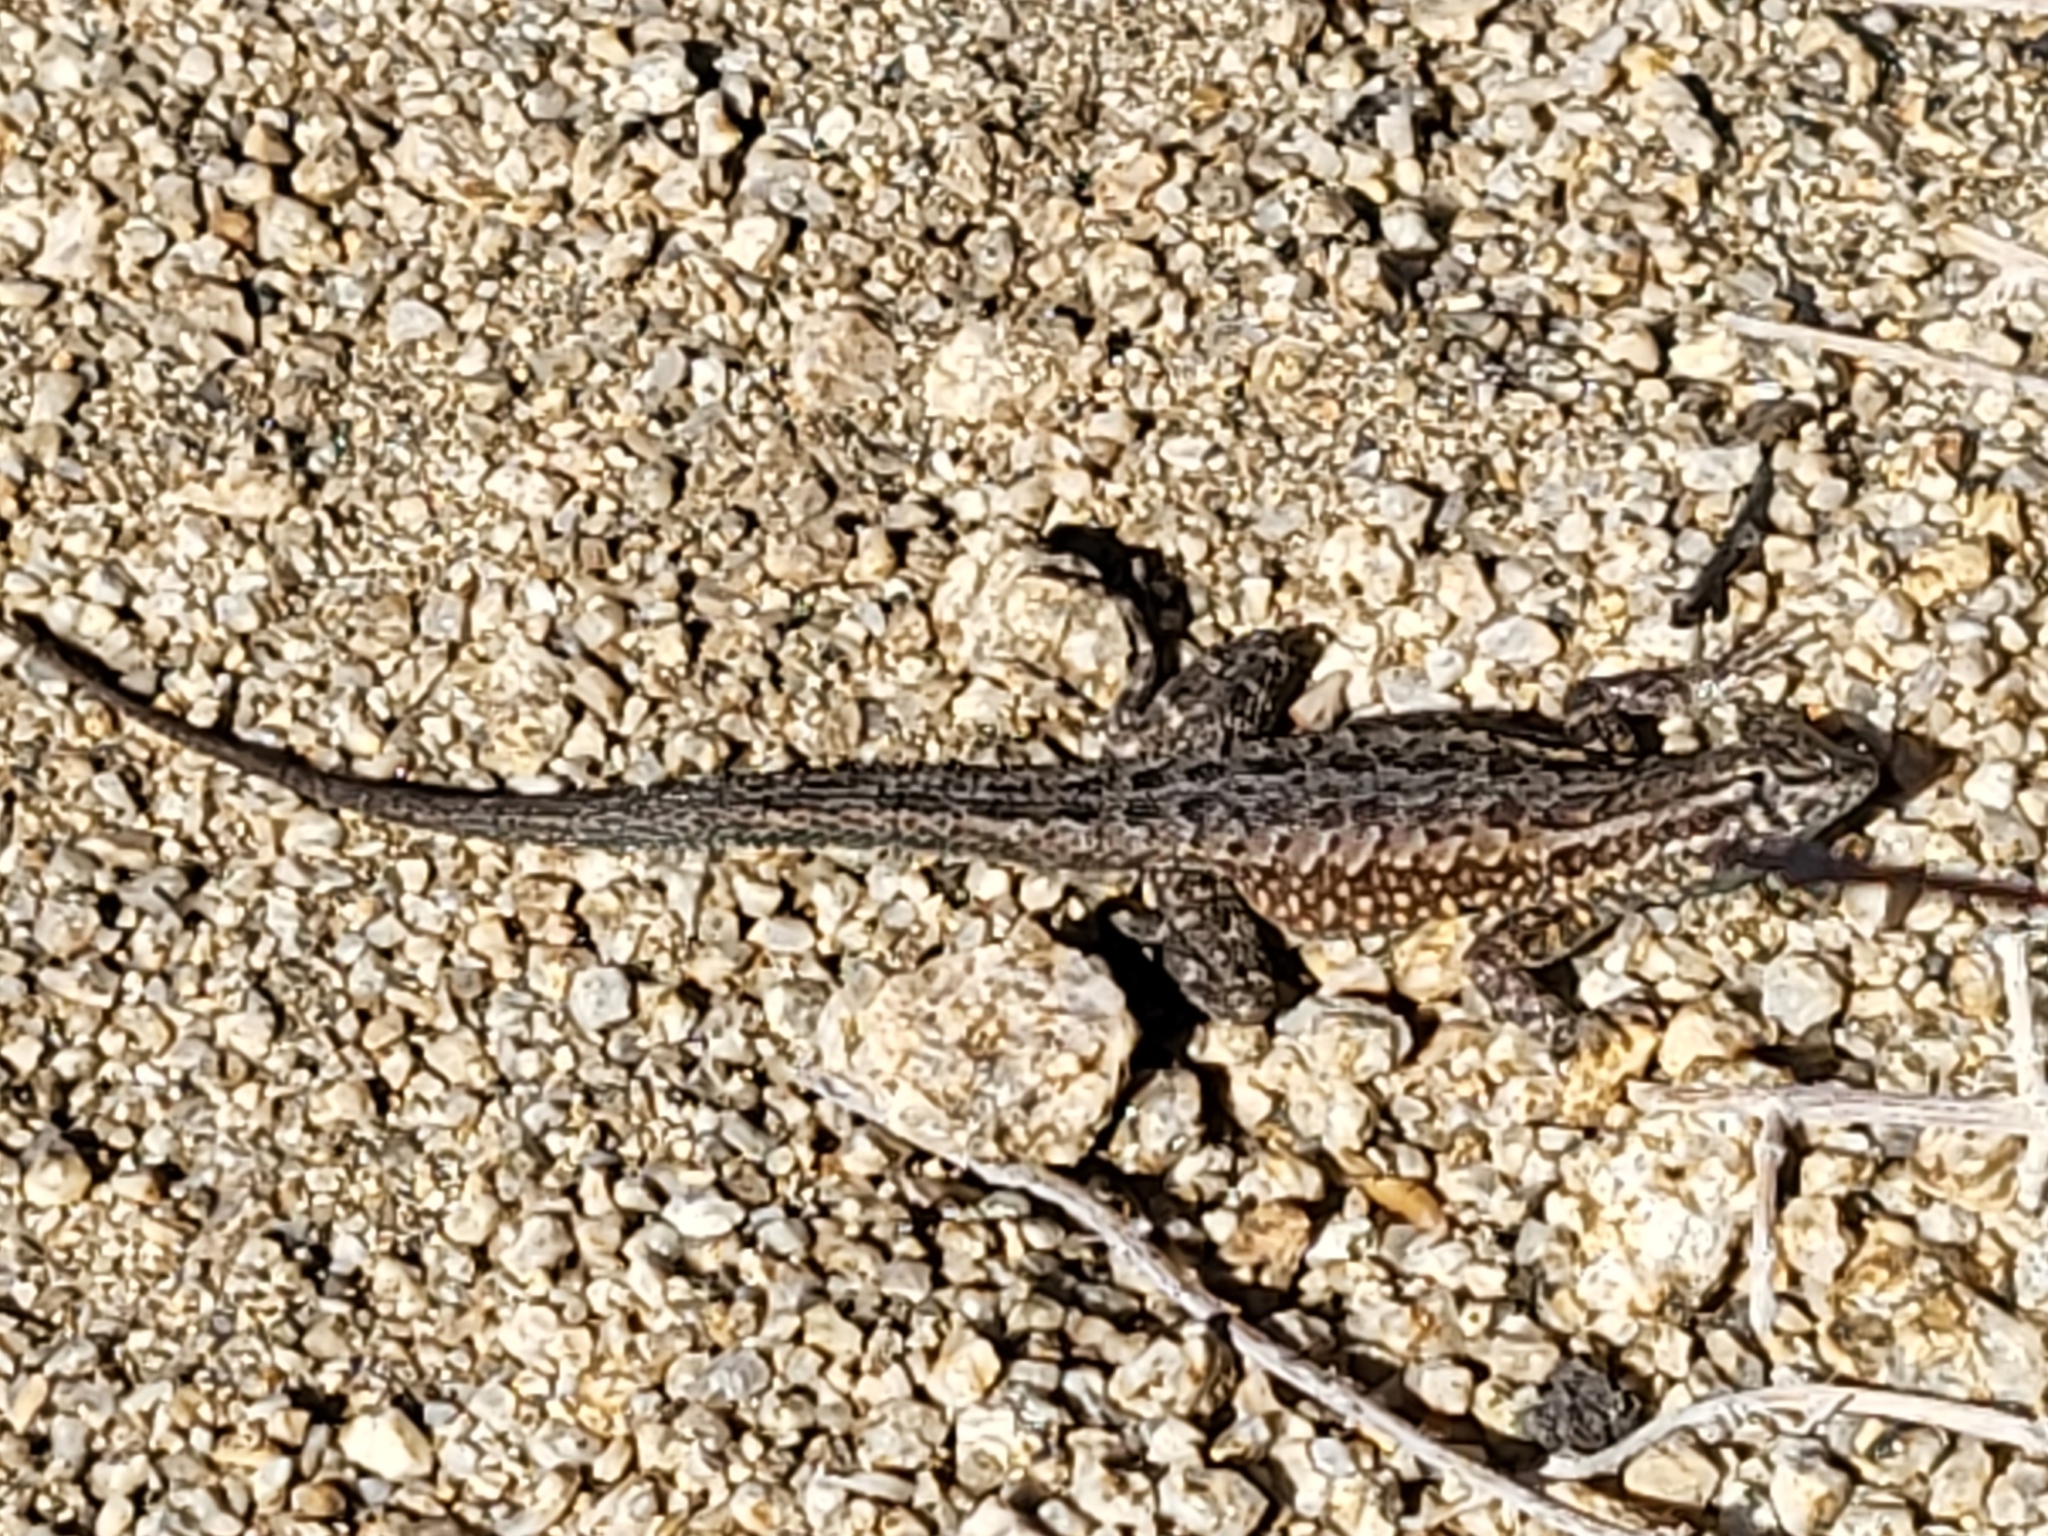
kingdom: Animalia
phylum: Chordata
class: Squamata
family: Phrynosomatidae
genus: Uta
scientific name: Uta stansburiana
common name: Side-blotched lizard
